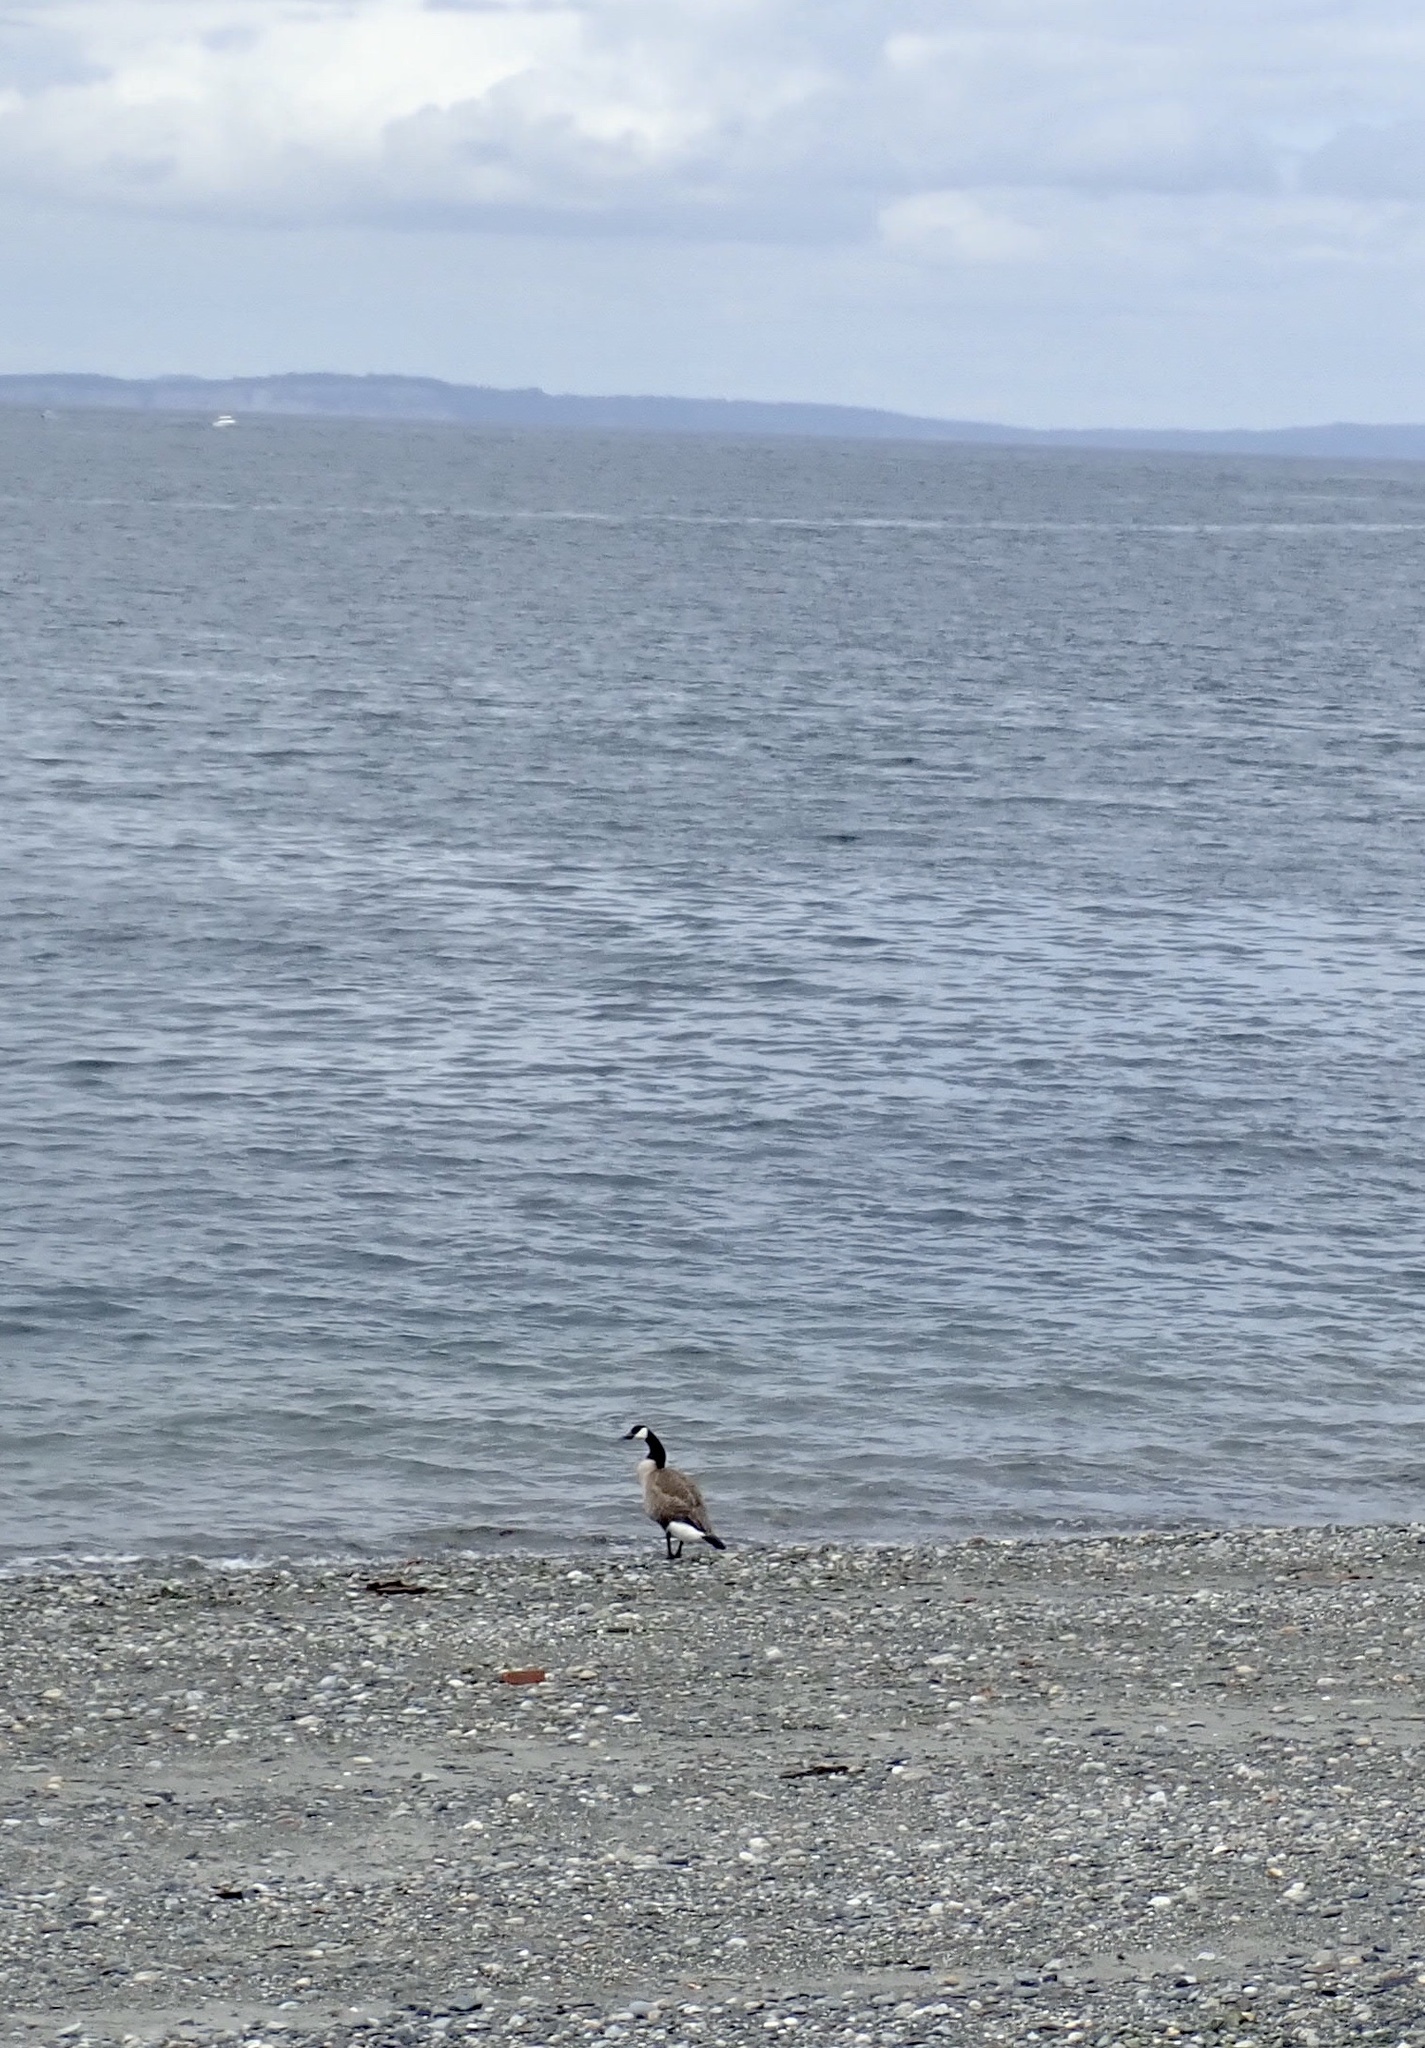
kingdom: Animalia
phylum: Chordata
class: Aves
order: Anseriformes
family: Anatidae
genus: Branta
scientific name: Branta canadensis
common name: Canada goose
